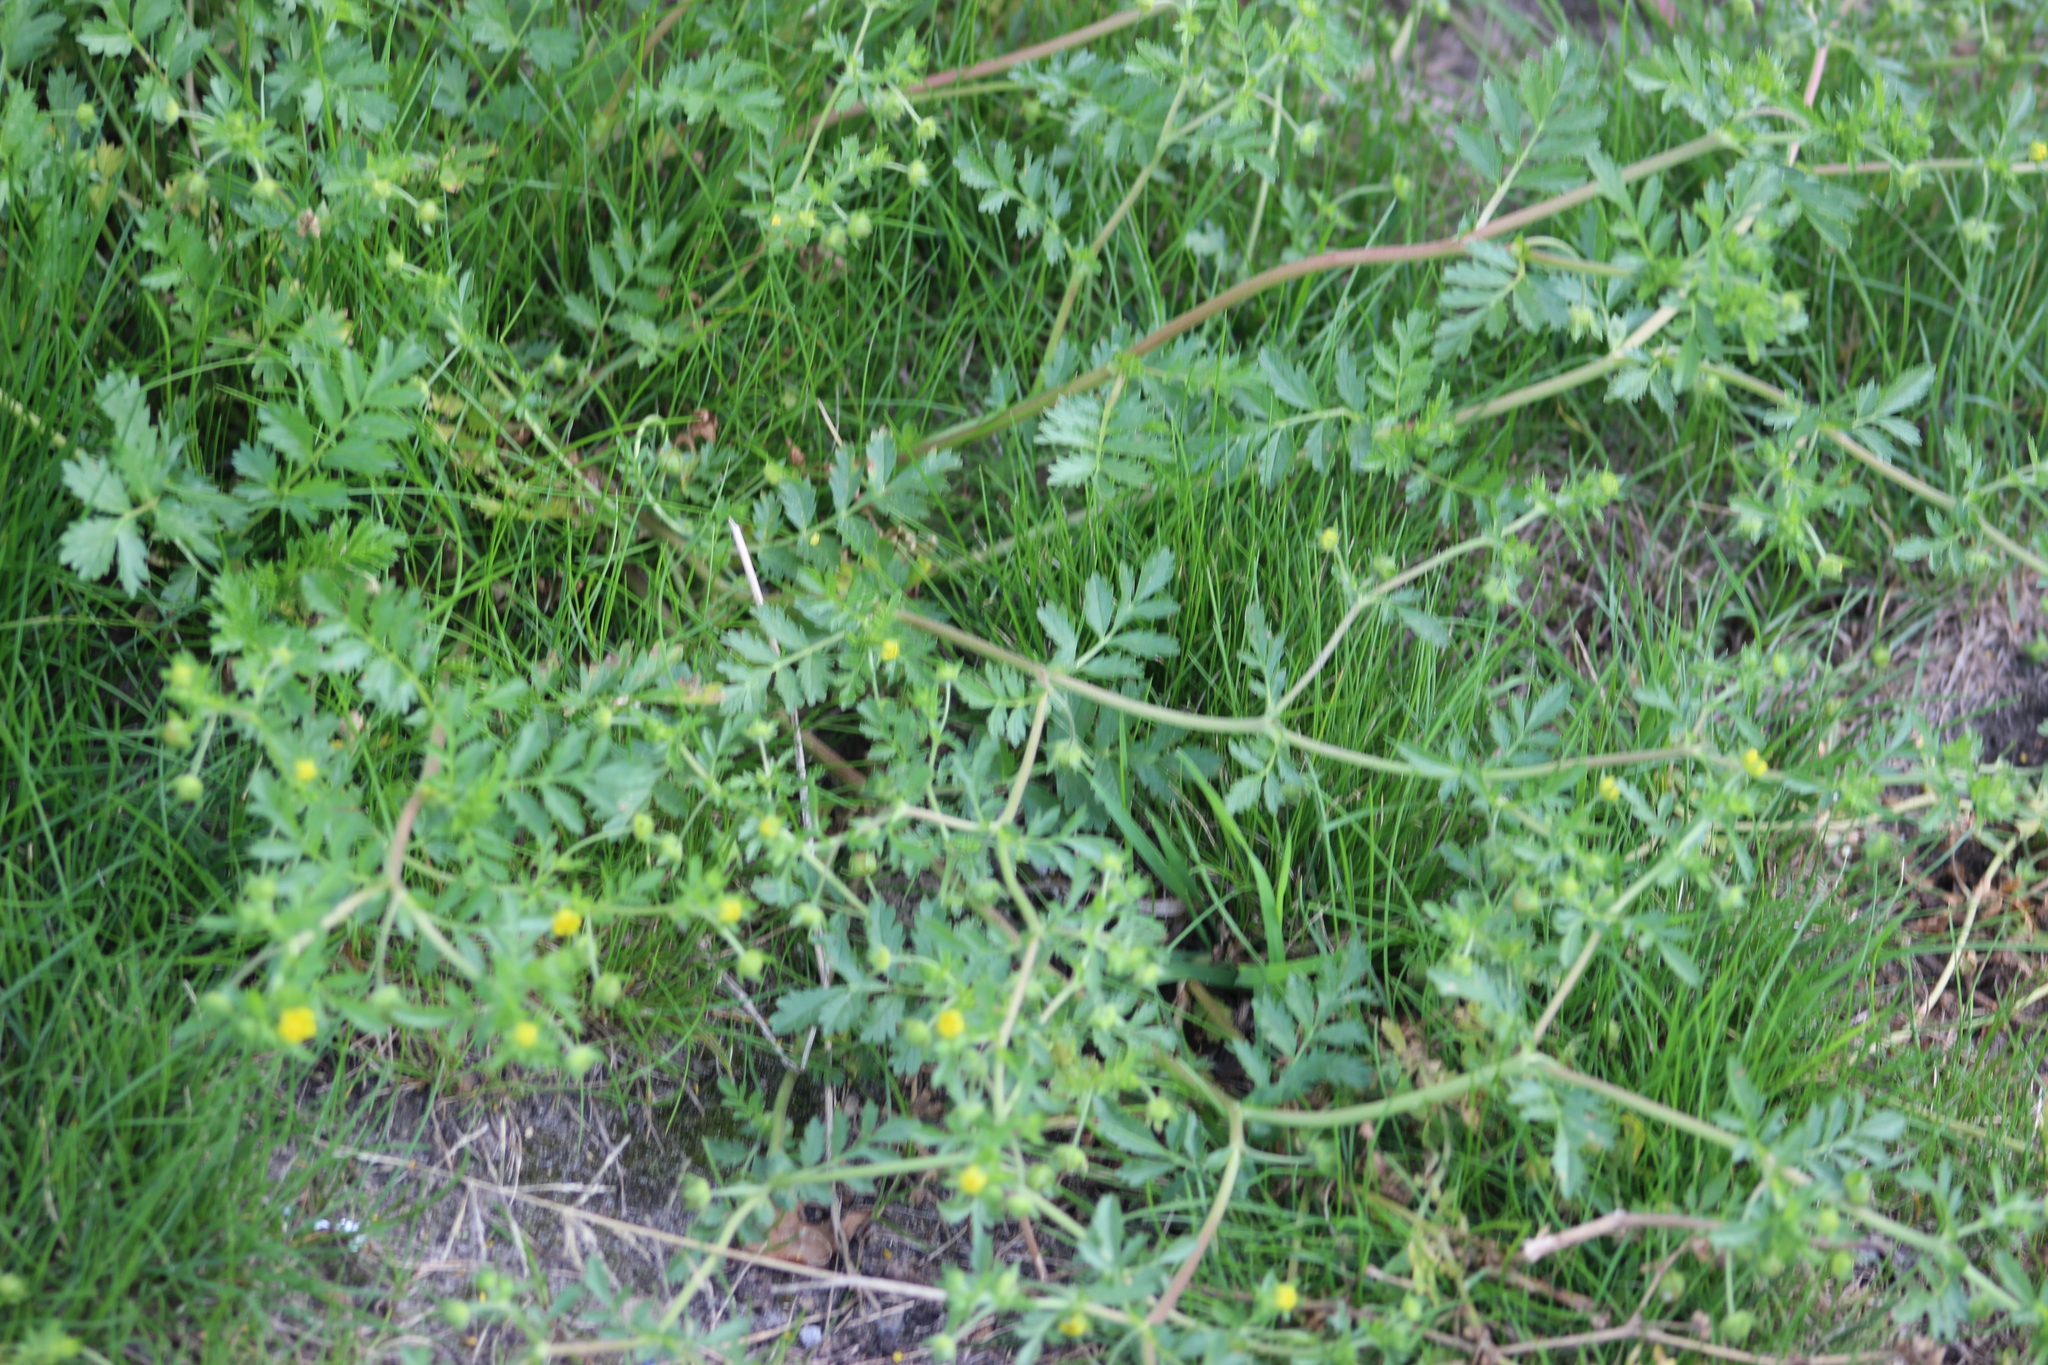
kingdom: Plantae
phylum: Tracheophyta
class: Magnoliopsida
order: Rosales
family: Rosaceae
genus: Potentilla
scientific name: Potentilla supina
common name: Prostrate cinquefoil
